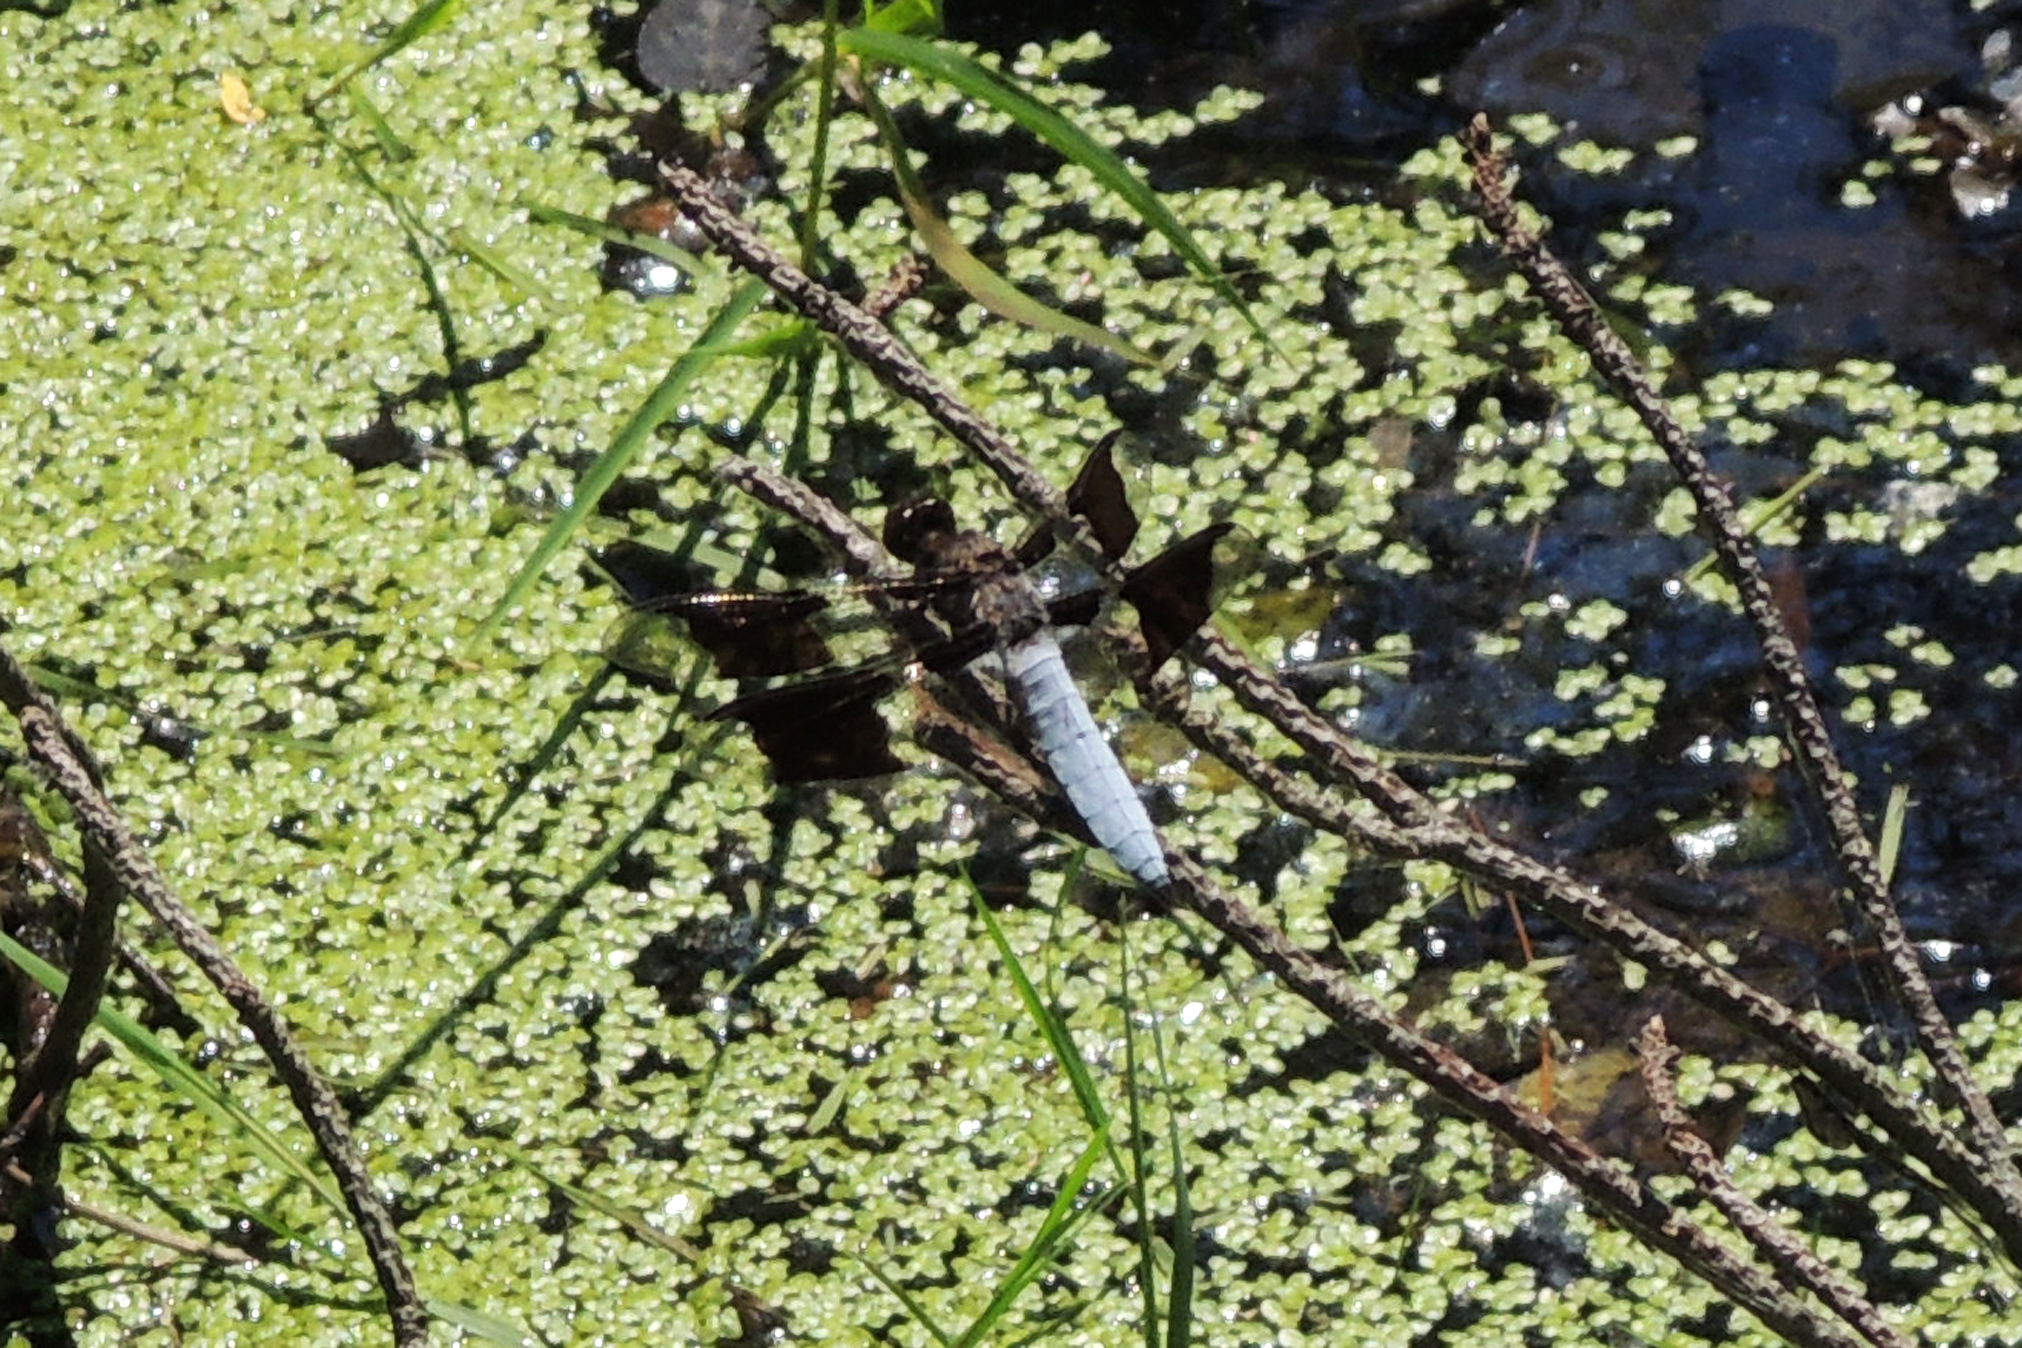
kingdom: Animalia
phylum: Arthropoda
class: Insecta
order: Odonata
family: Libellulidae
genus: Plathemis
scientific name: Plathemis lydia
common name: Common whitetail
